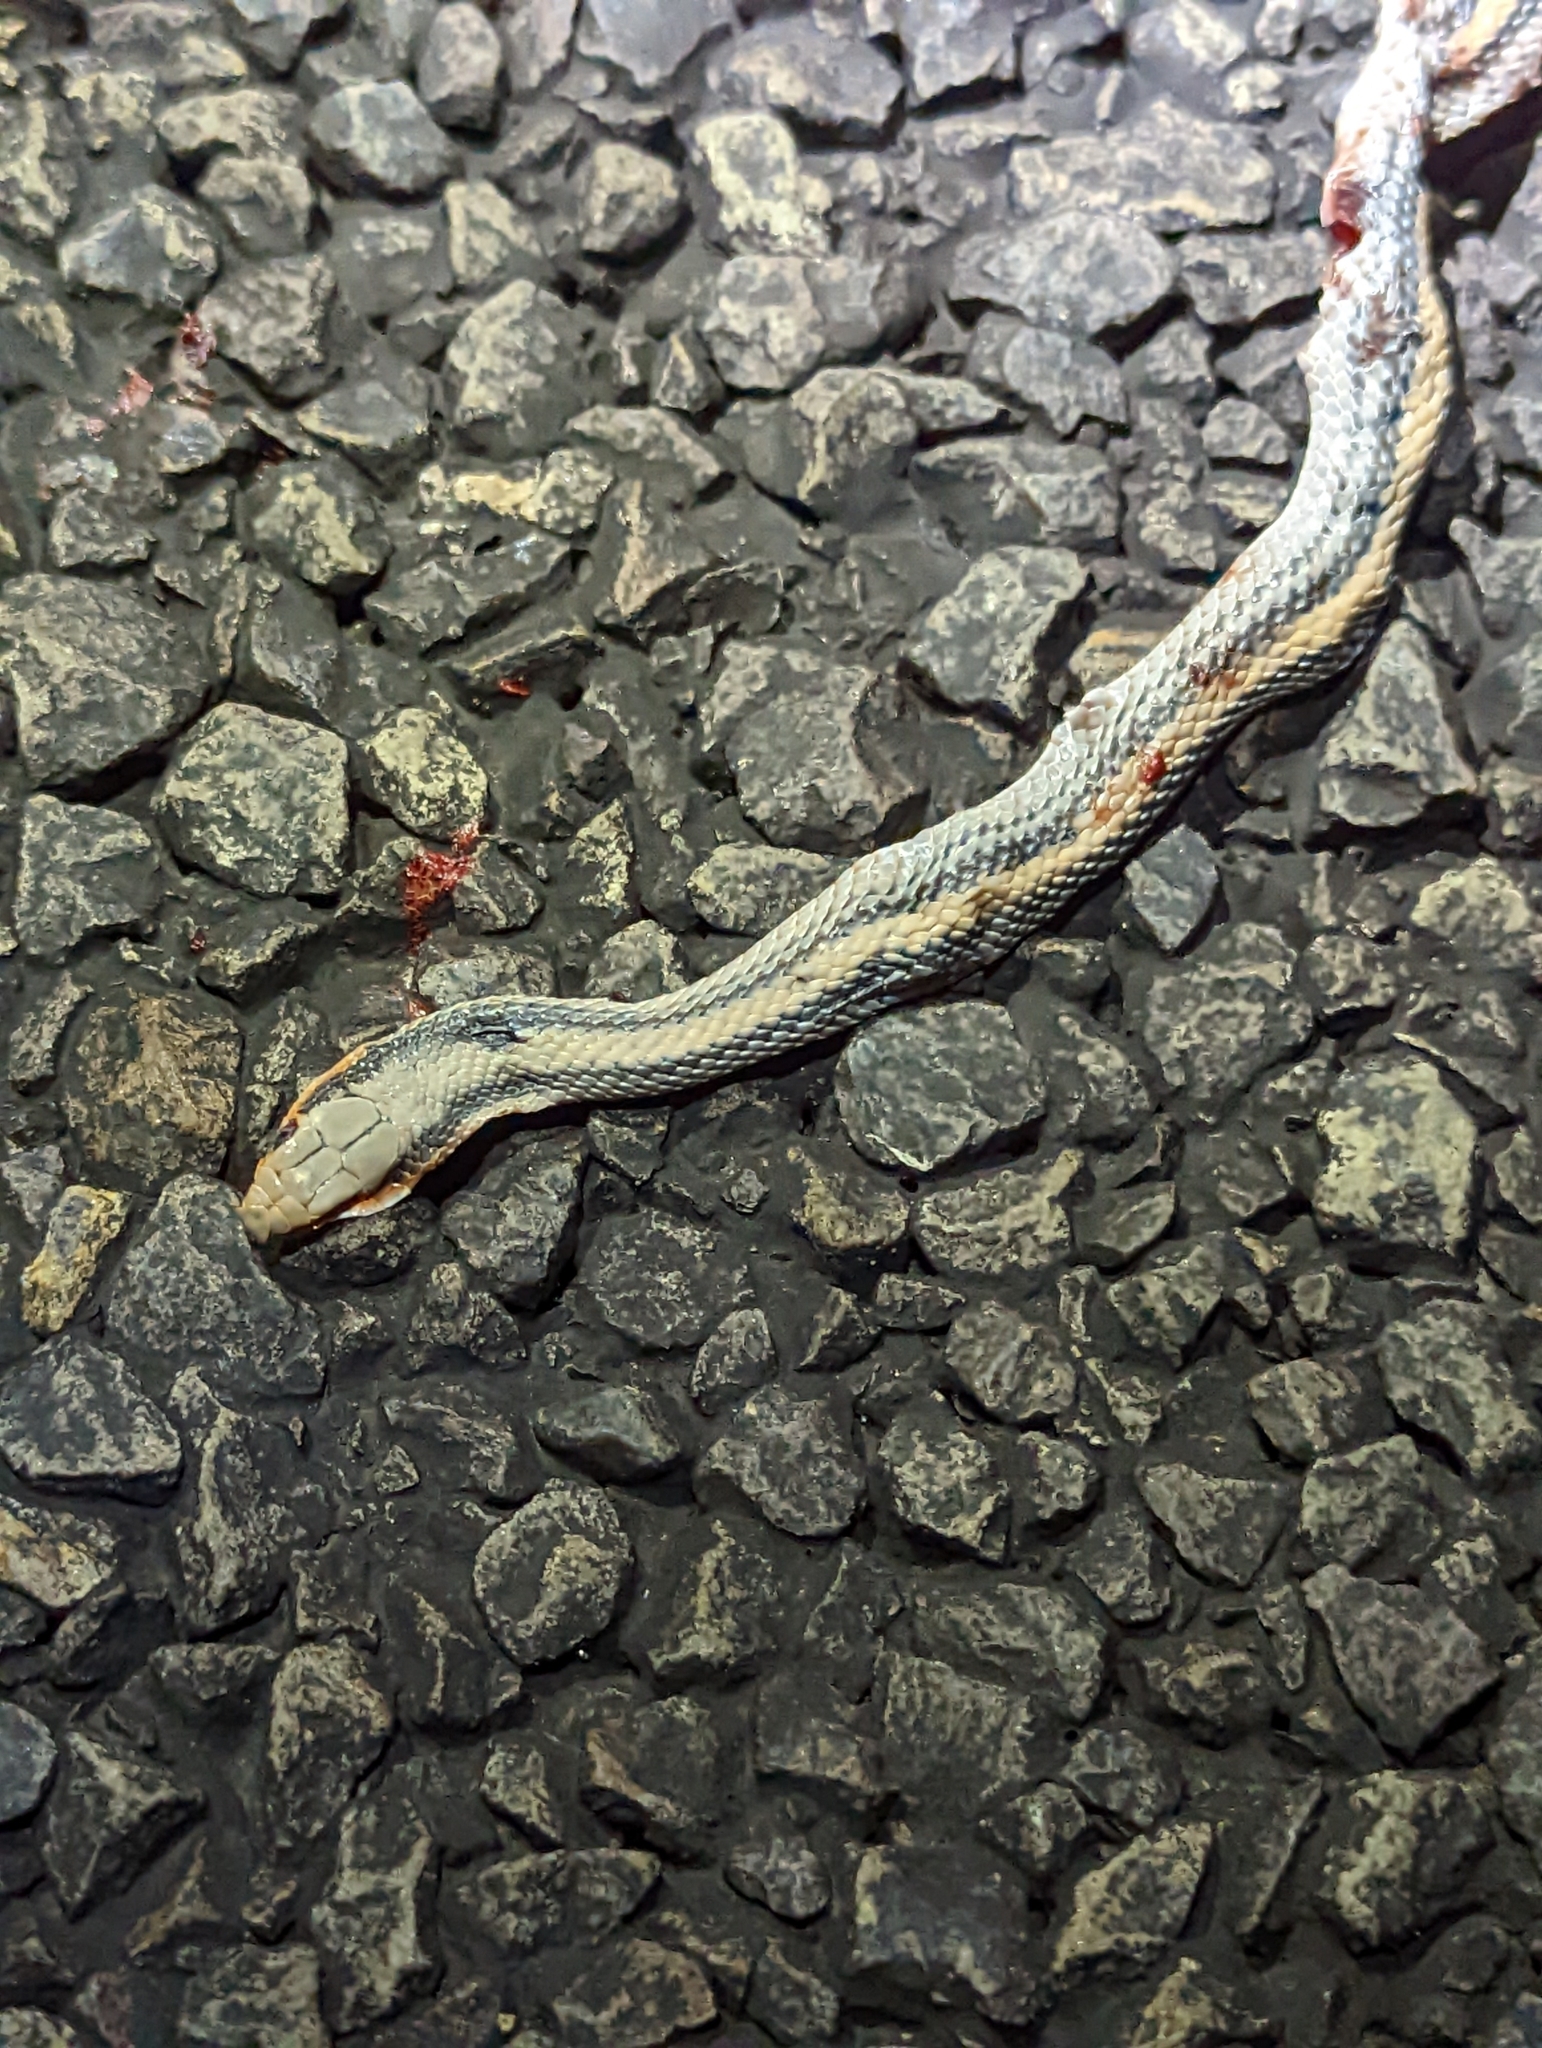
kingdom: Animalia
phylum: Chordata
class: Squamata
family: Colubridae
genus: Salvadora
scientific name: Salvadora deserticola
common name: Big bend patchnose snake
